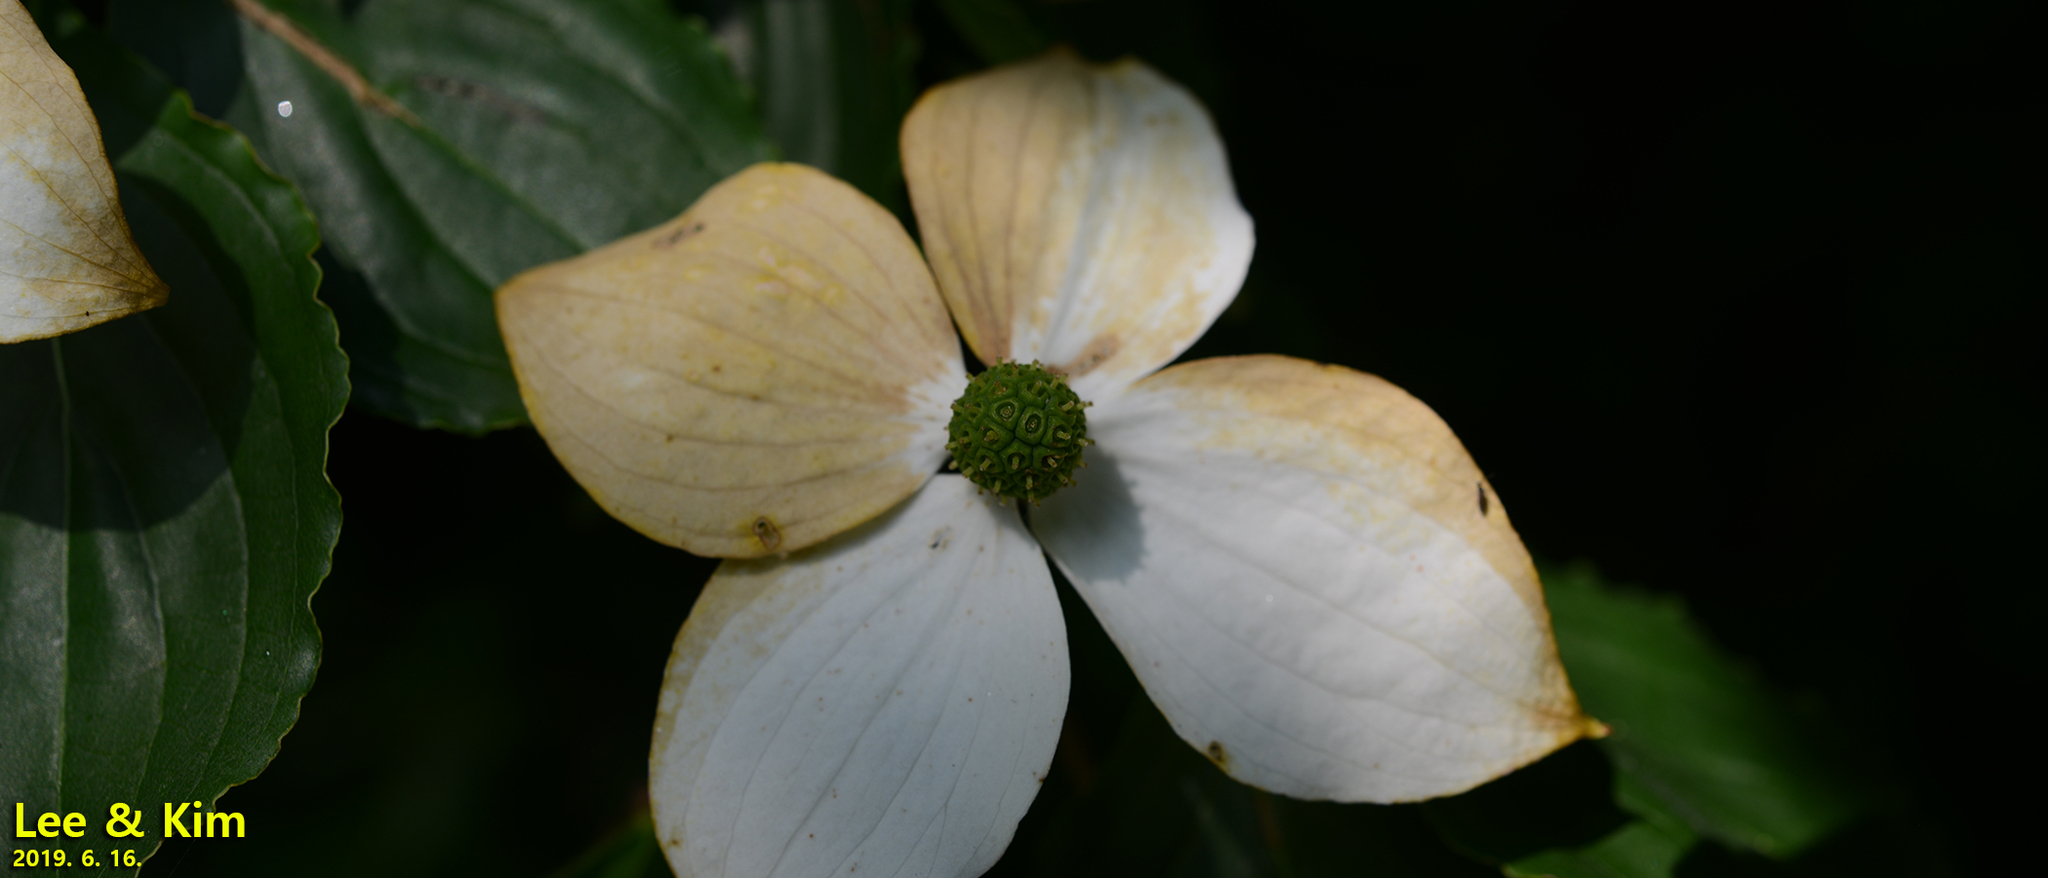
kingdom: Plantae
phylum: Tracheophyta
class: Magnoliopsida
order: Cornales
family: Cornaceae
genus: Cornus
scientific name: Cornus kousa
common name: Japanese dogwood
